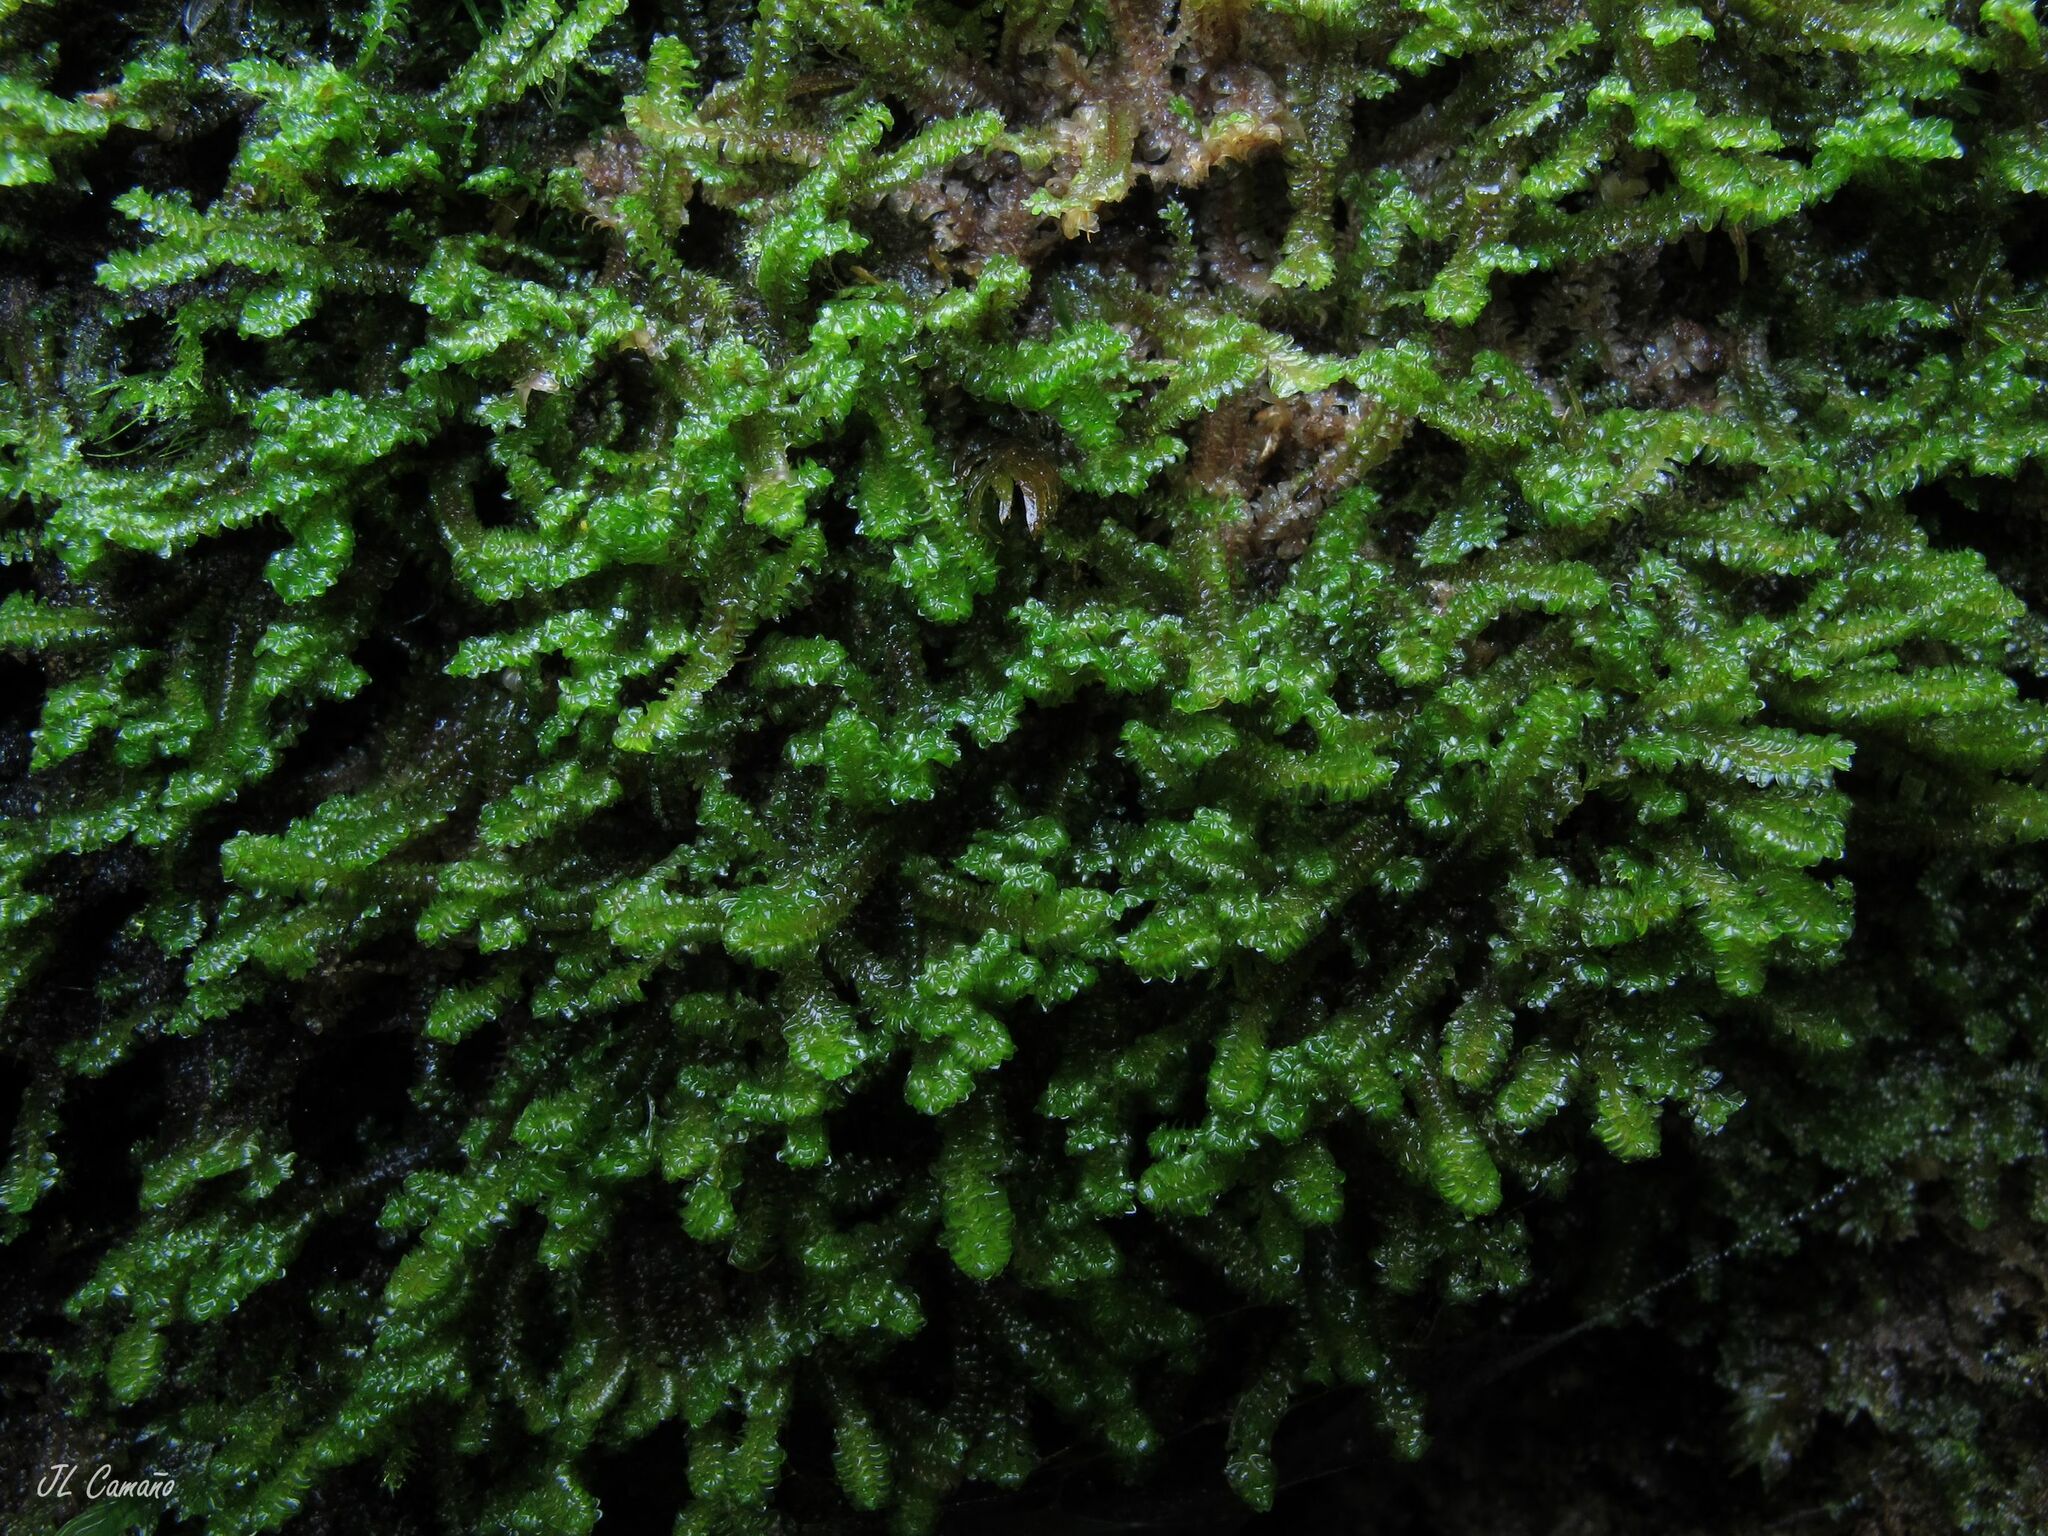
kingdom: Plantae
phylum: Marchantiophyta
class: Jungermanniopsida
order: Jungermanniales
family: Scapaniaceae
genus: Diplophyllum
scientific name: Diplophyllum albicans
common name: White earwort
